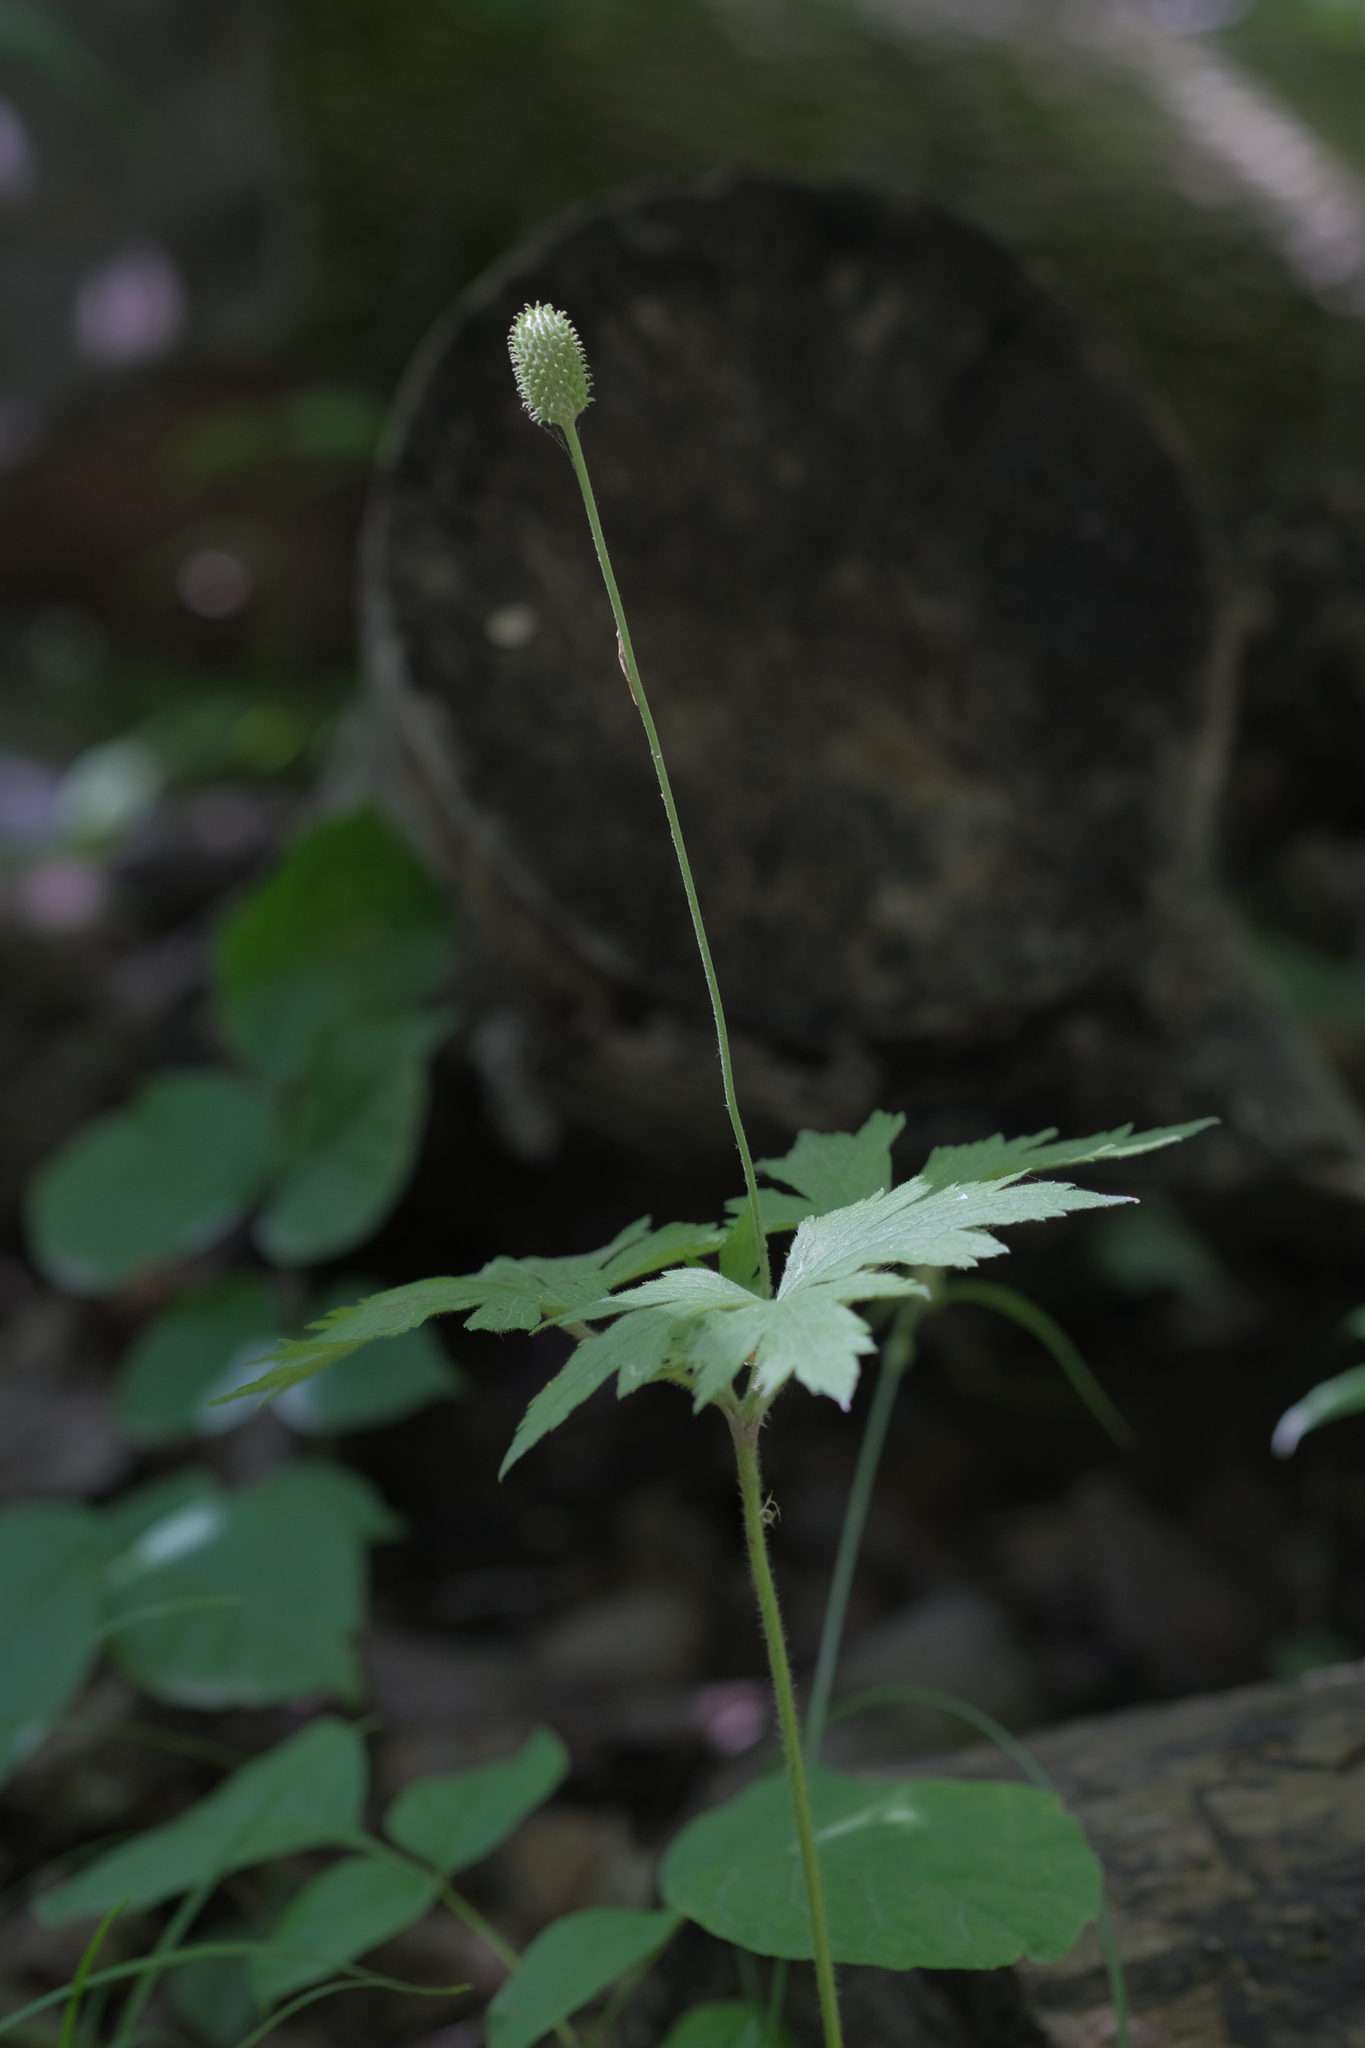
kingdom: Plantae
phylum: Tracheophyta
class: Magnoliopsida
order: Ranunculales
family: Ranunculaceae
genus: Anemone
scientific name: Anemone virginiana
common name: Tall anemone
